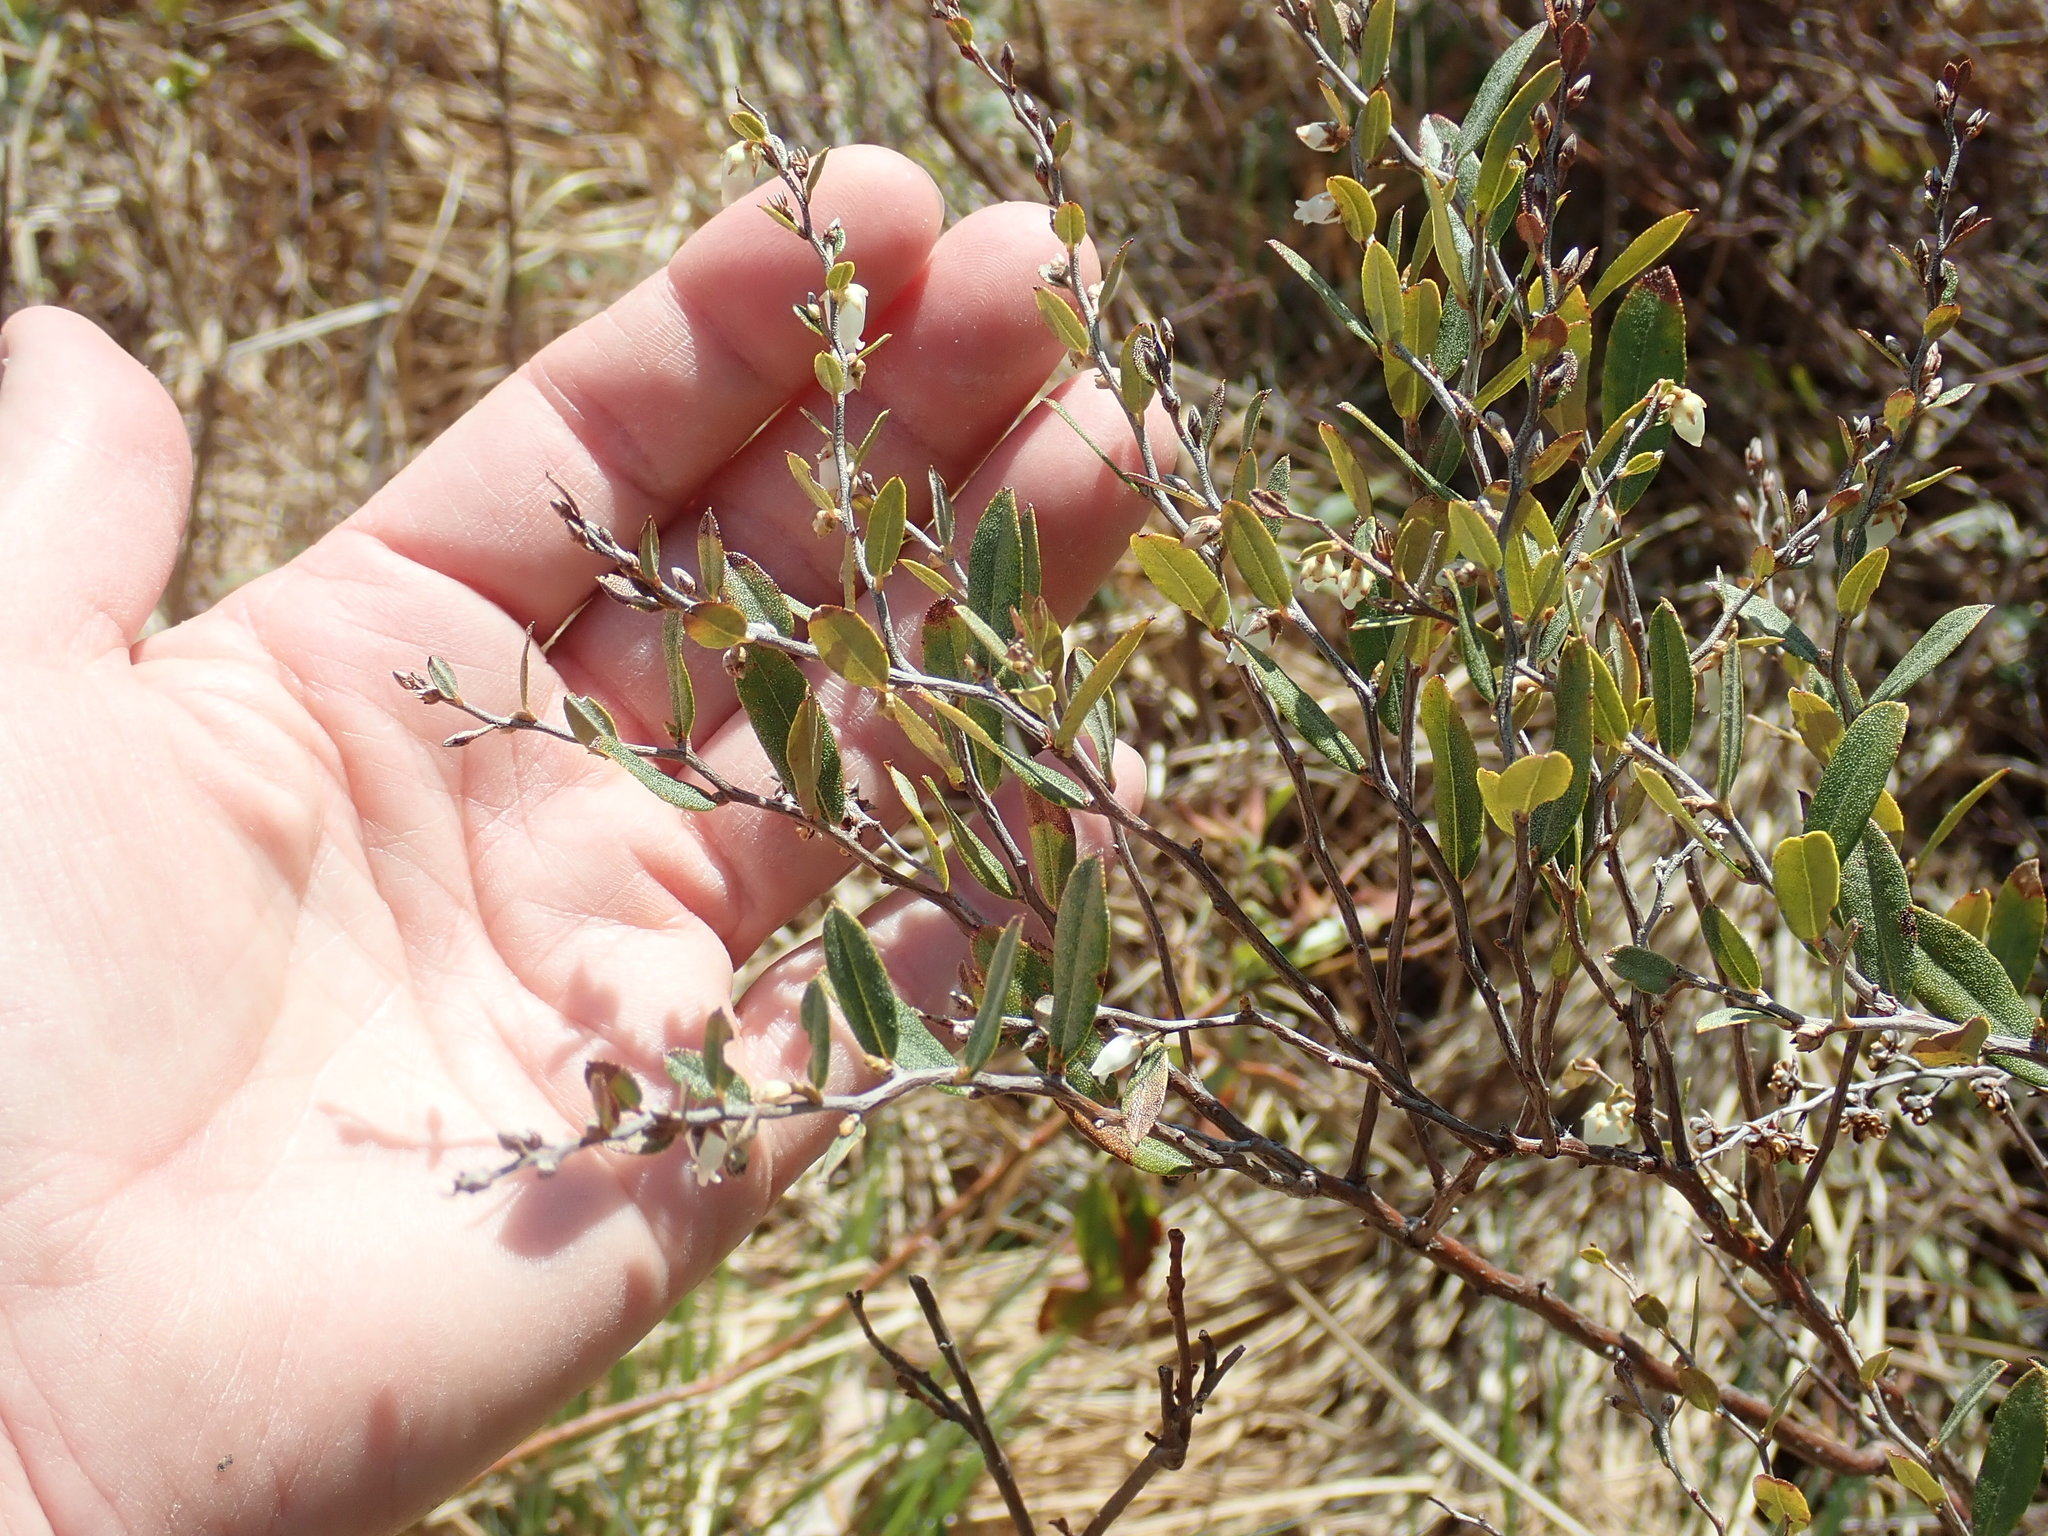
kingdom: Plantae
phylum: Tracheophyta
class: Magnoliopsida
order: Ericales
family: Ericaceae
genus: Chamaedaphne
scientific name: Chamaedaphne calyculata
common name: Leatherleaf
